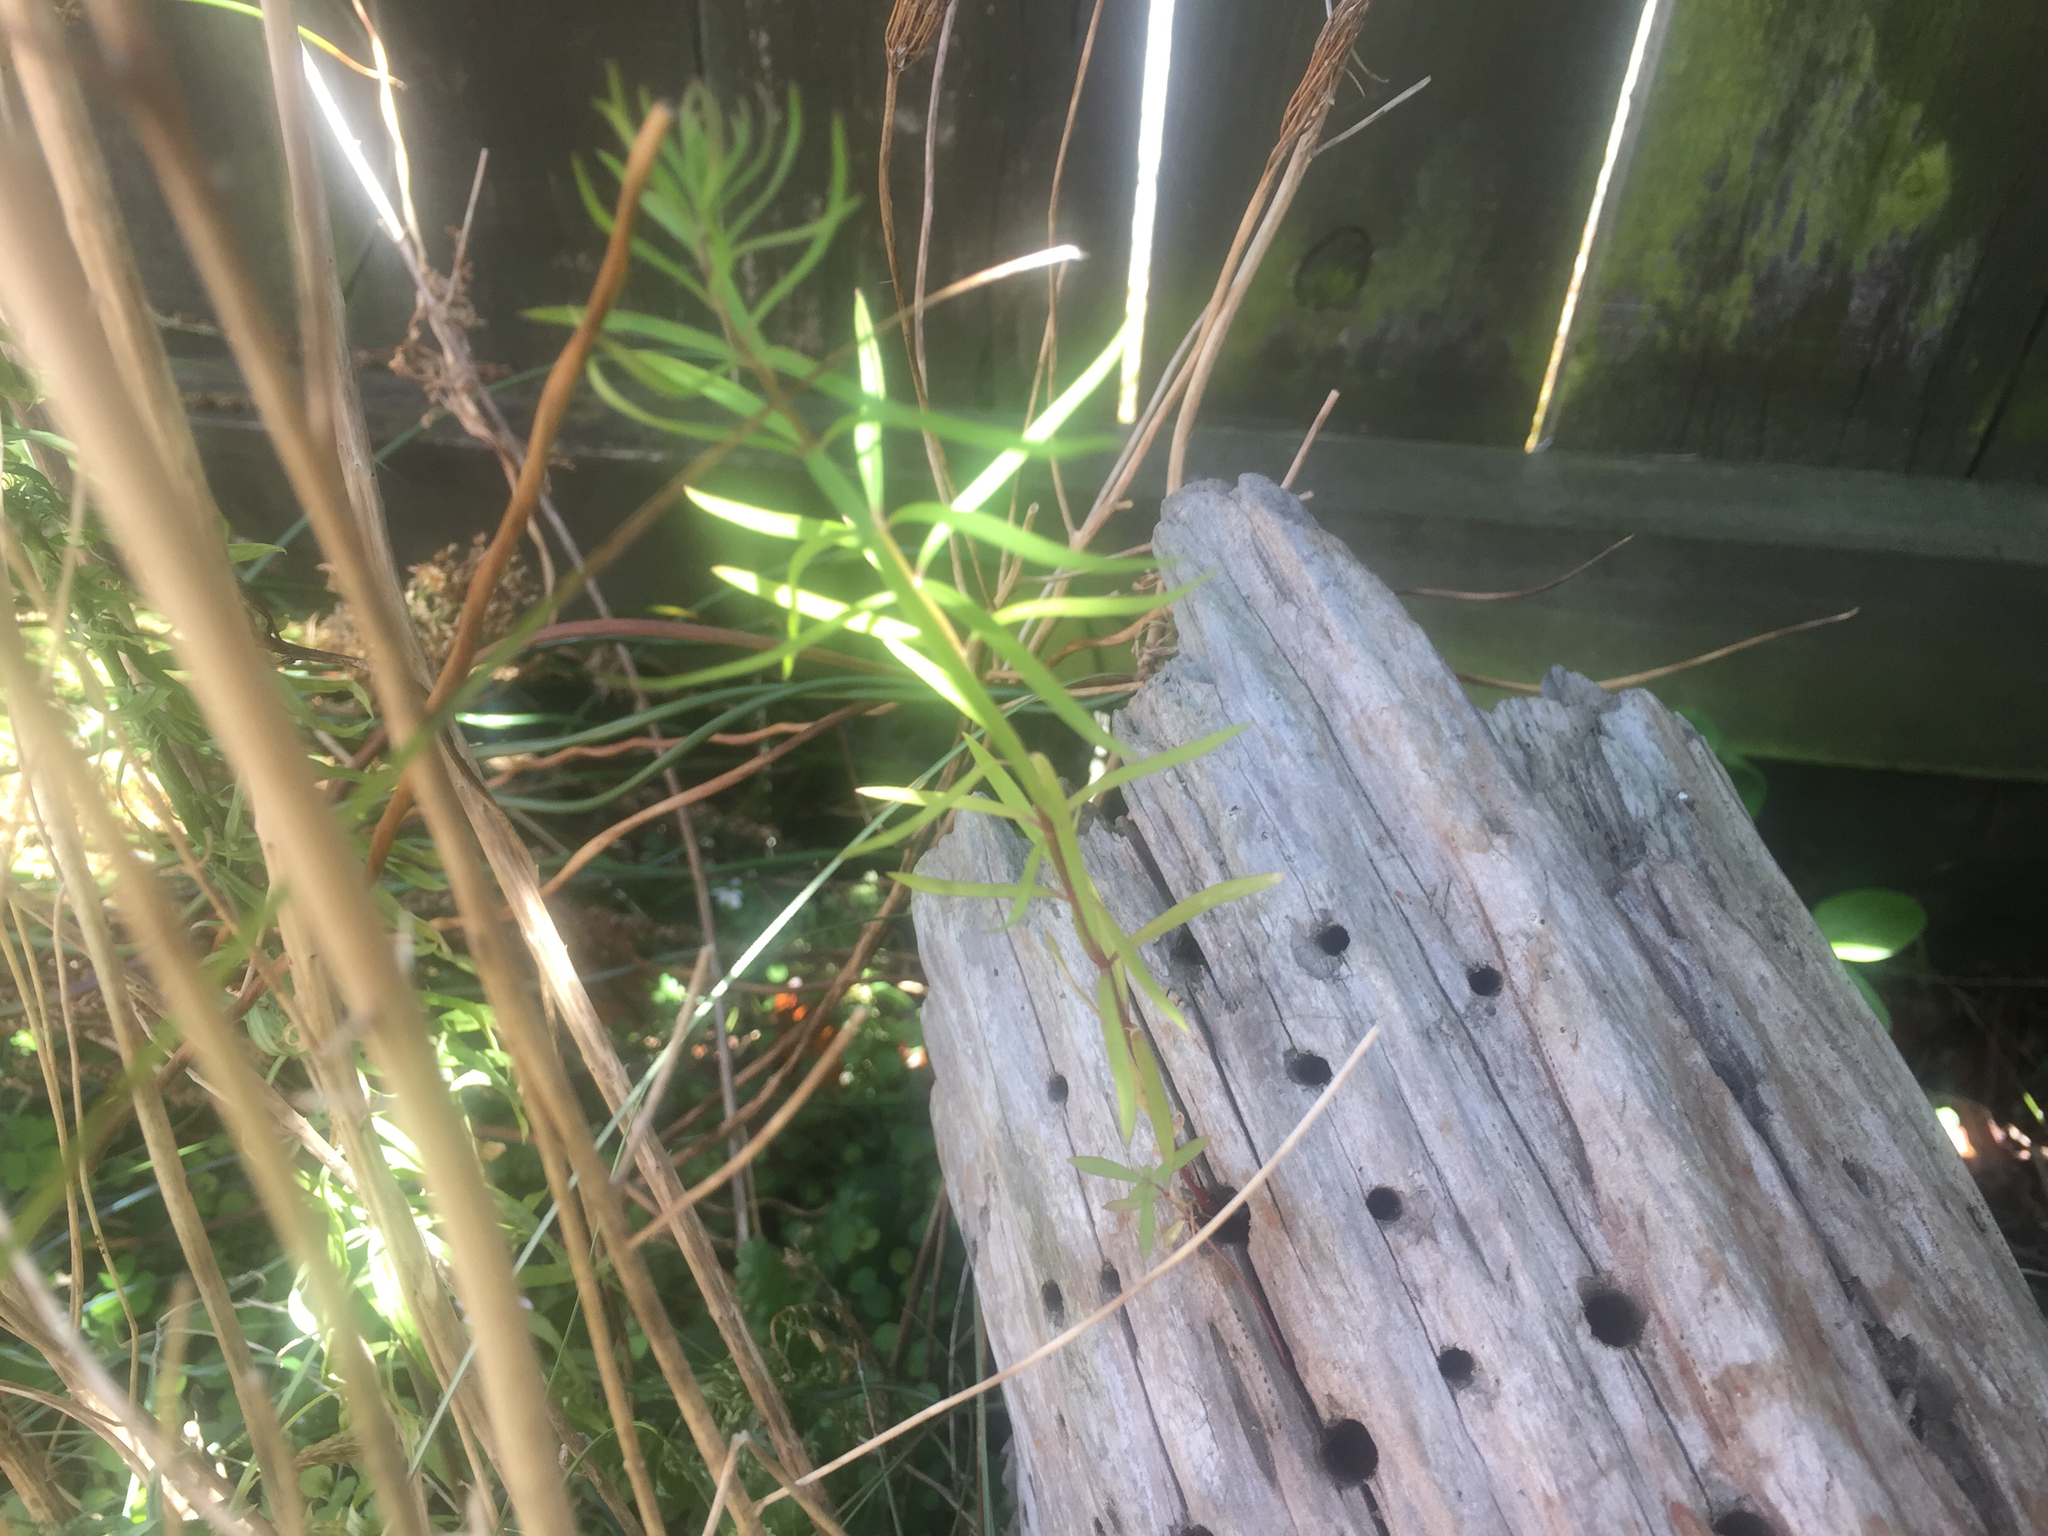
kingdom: Plantae
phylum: Tracheophyta
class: Magnoliopsida
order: Lamiales
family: Plantaginaceae
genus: Linaria
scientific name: Linaria purpurea
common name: Purple toadflax
